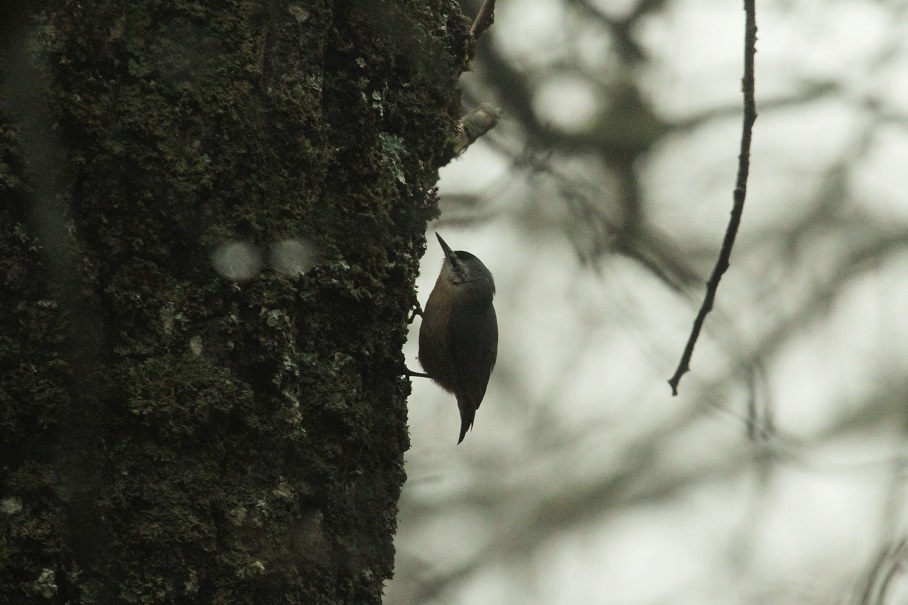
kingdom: Animalia
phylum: Chordata
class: Aves
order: Passeriformes
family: Sittidae
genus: Sitta
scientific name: Sitta ledanti
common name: Algerian nuthatch
